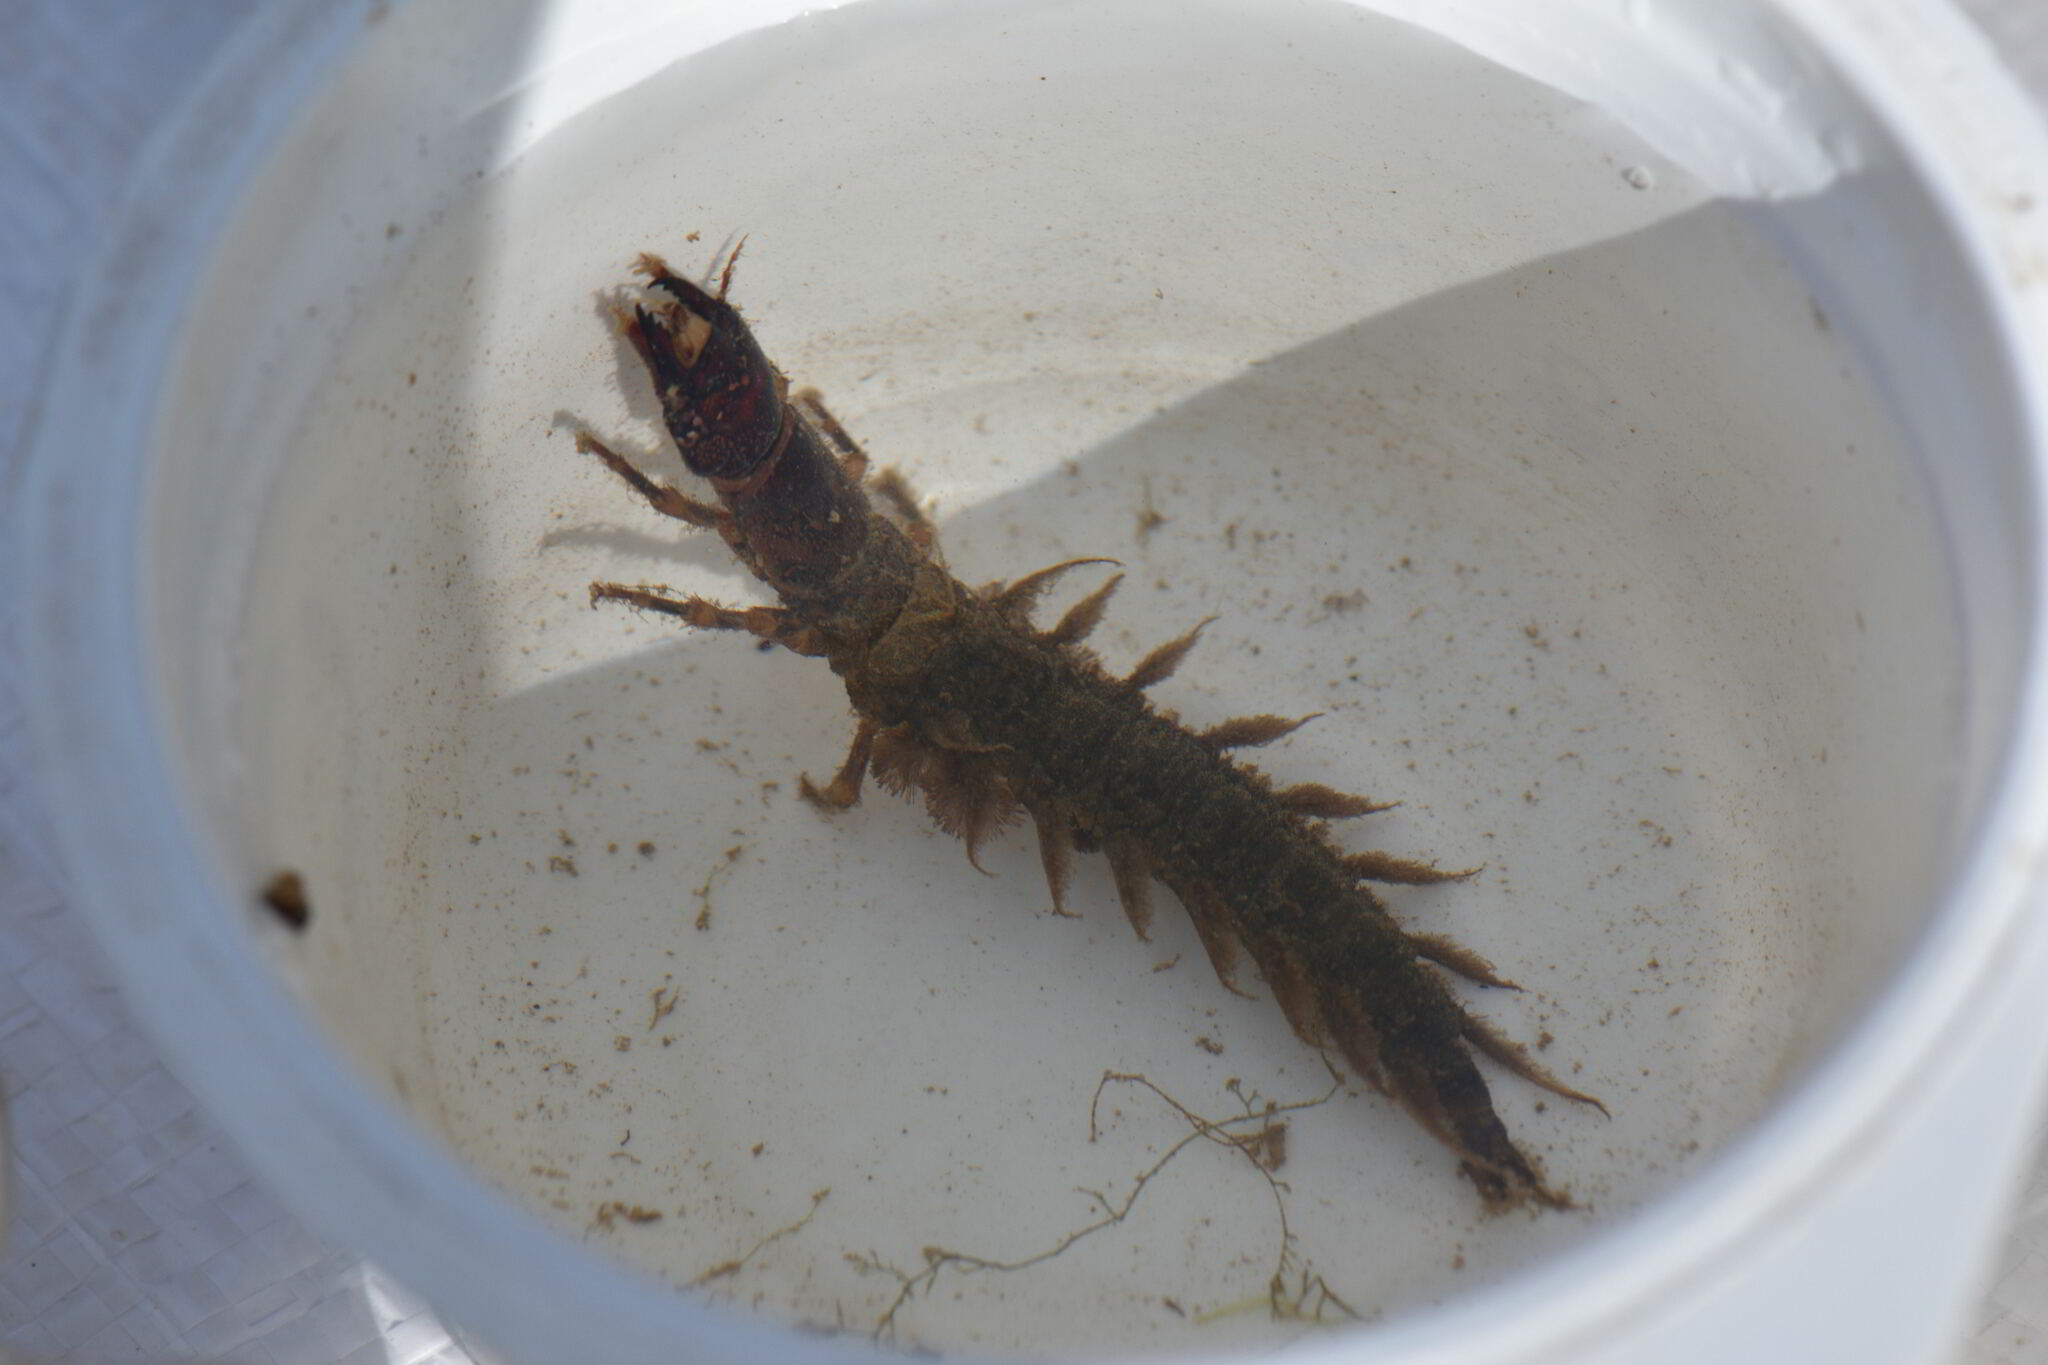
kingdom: Animalia
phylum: Arthropoda
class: Insecta
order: Megaloptera
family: Corydalidae
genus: Corydalus
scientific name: Corydalus cornutus
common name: Dobsonfly
